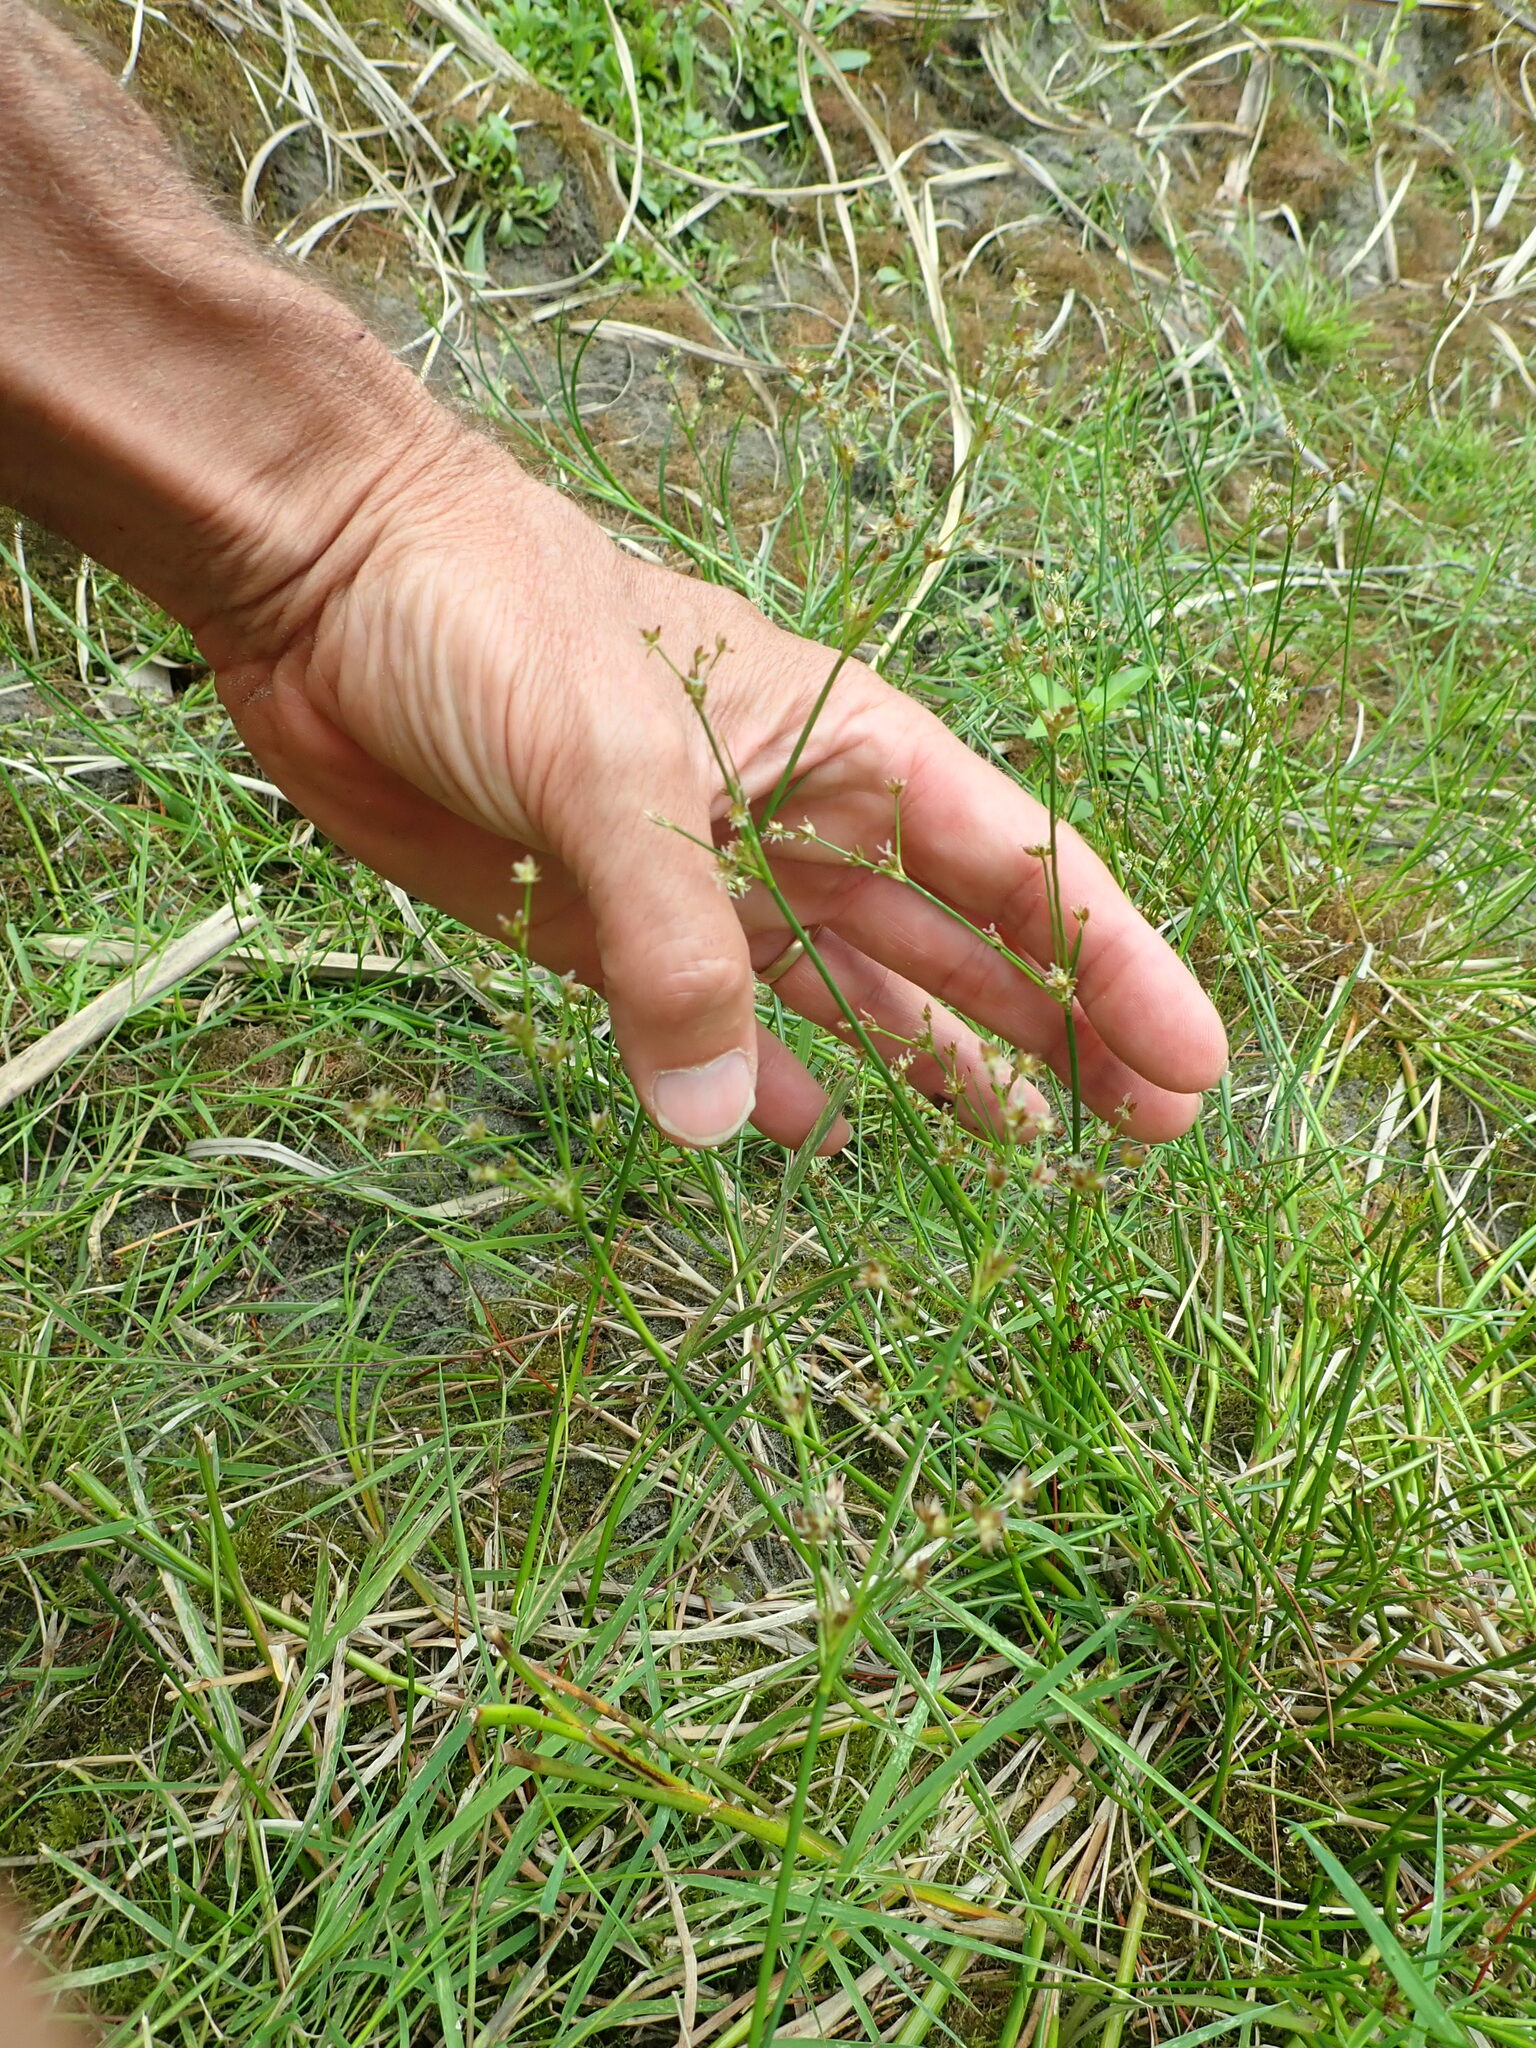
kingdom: Plantae
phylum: Tracheophyta
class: Liliopsida
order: Poales
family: Juncaceae
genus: Juncus
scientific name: Juncus articulatus
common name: Jointed rush
